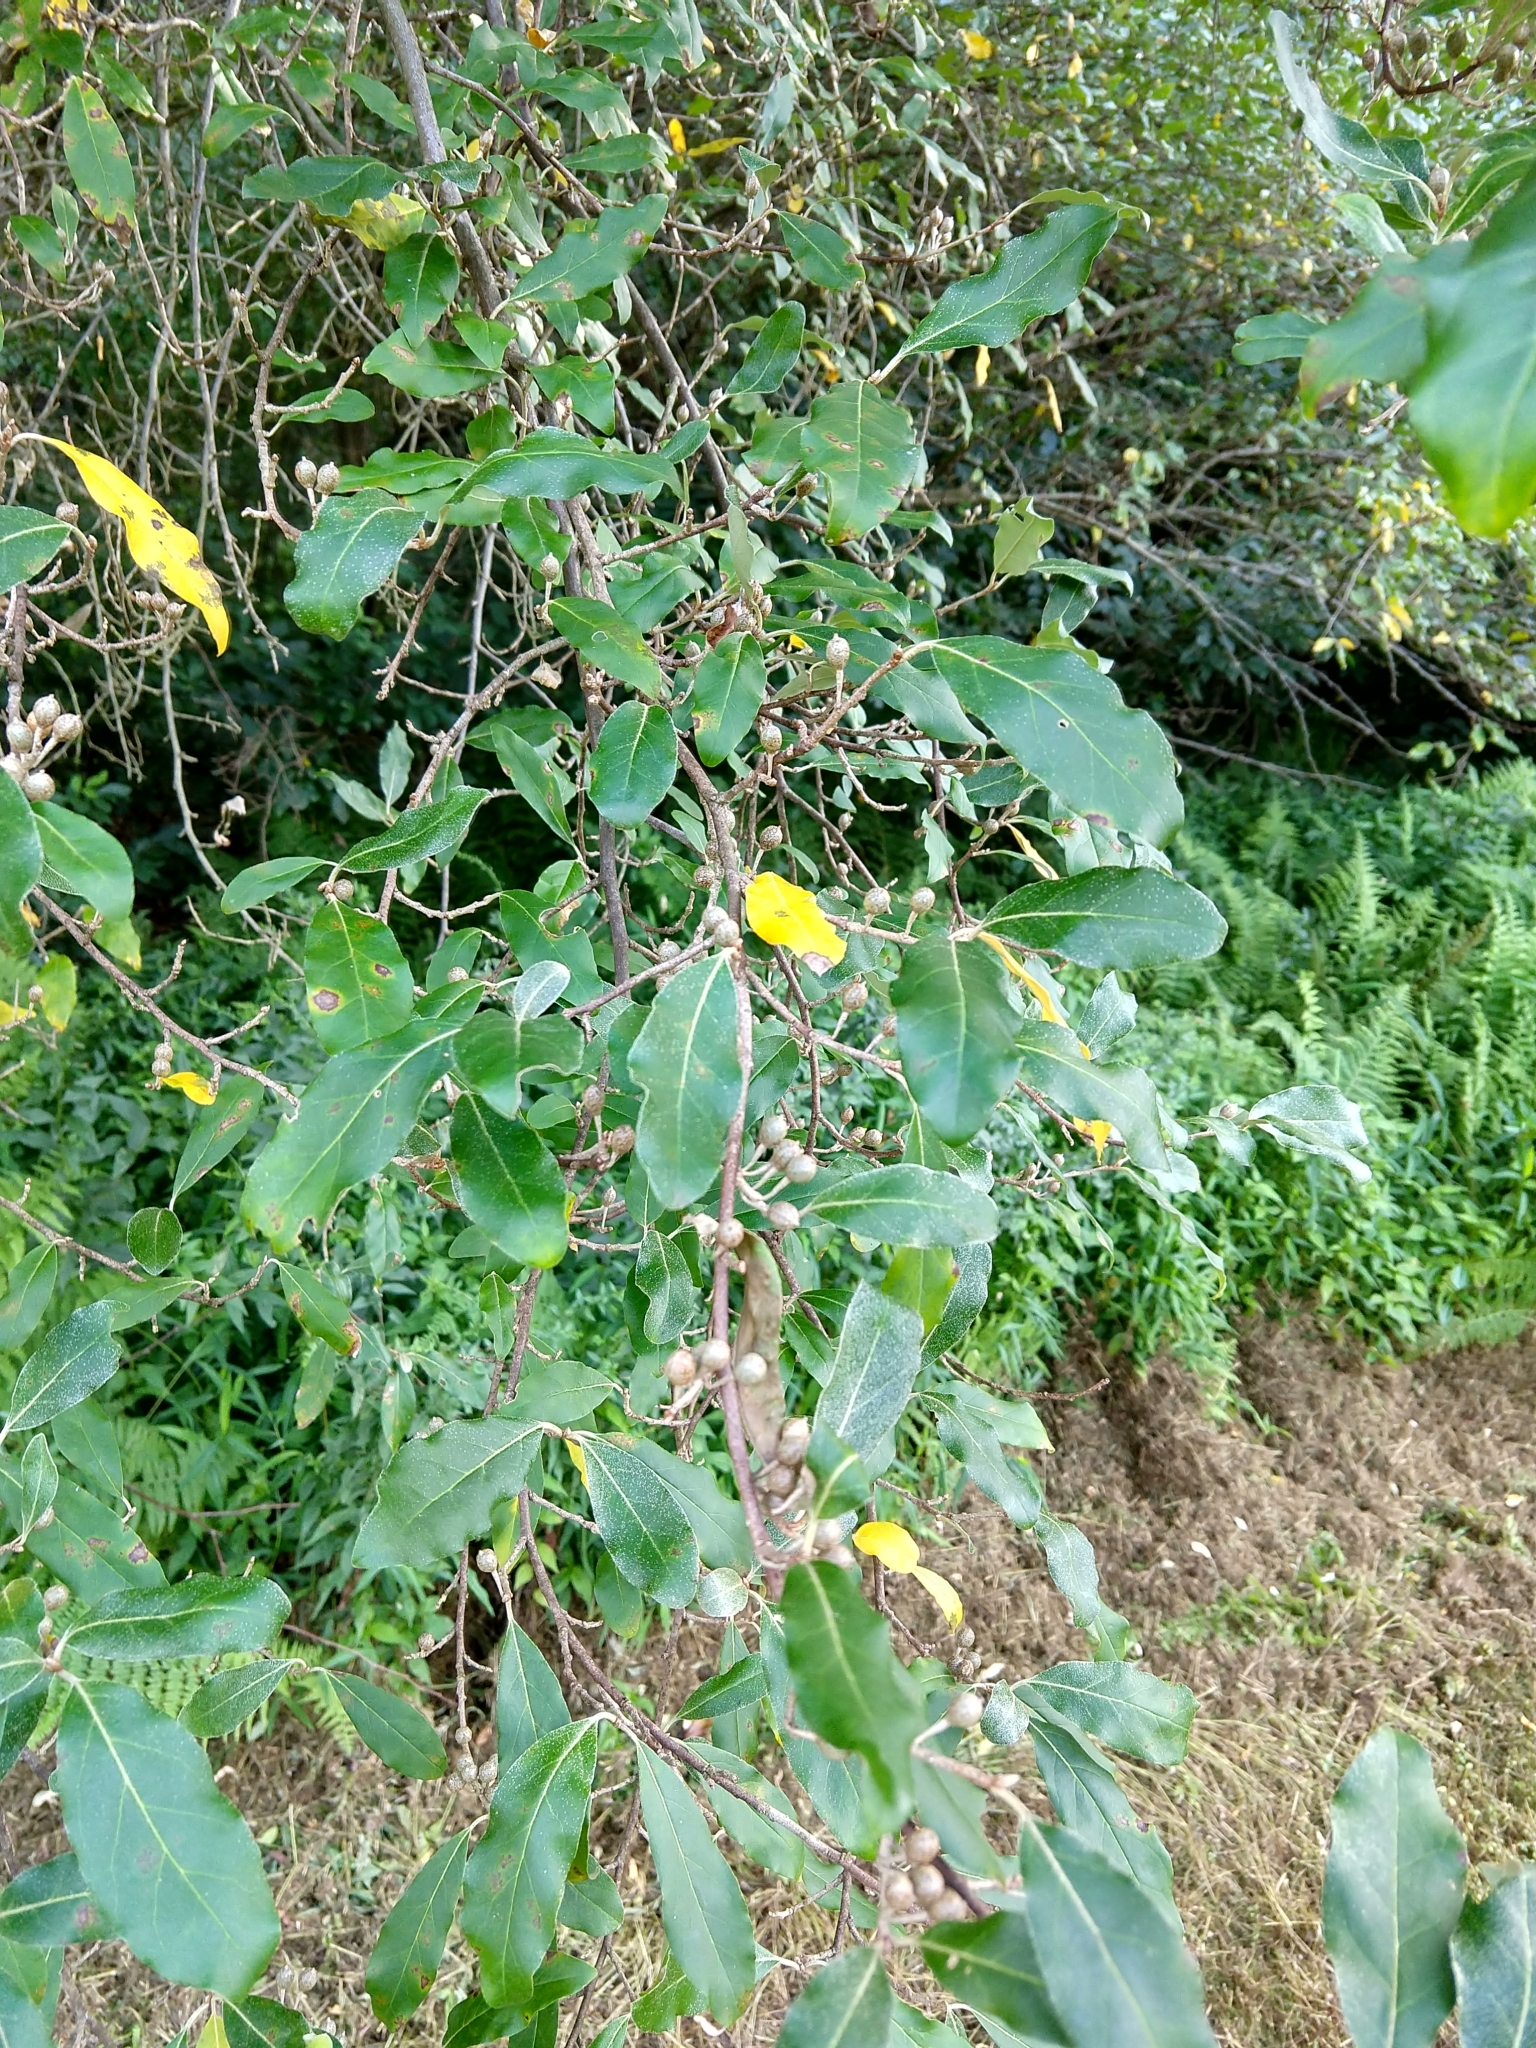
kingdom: Plantae
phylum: Tracheophyta
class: Magnoliopsida
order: Rosales
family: Elaeagnaceae
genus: Elaeagnus
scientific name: Elaeagnus umbellata
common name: Autumn olive
